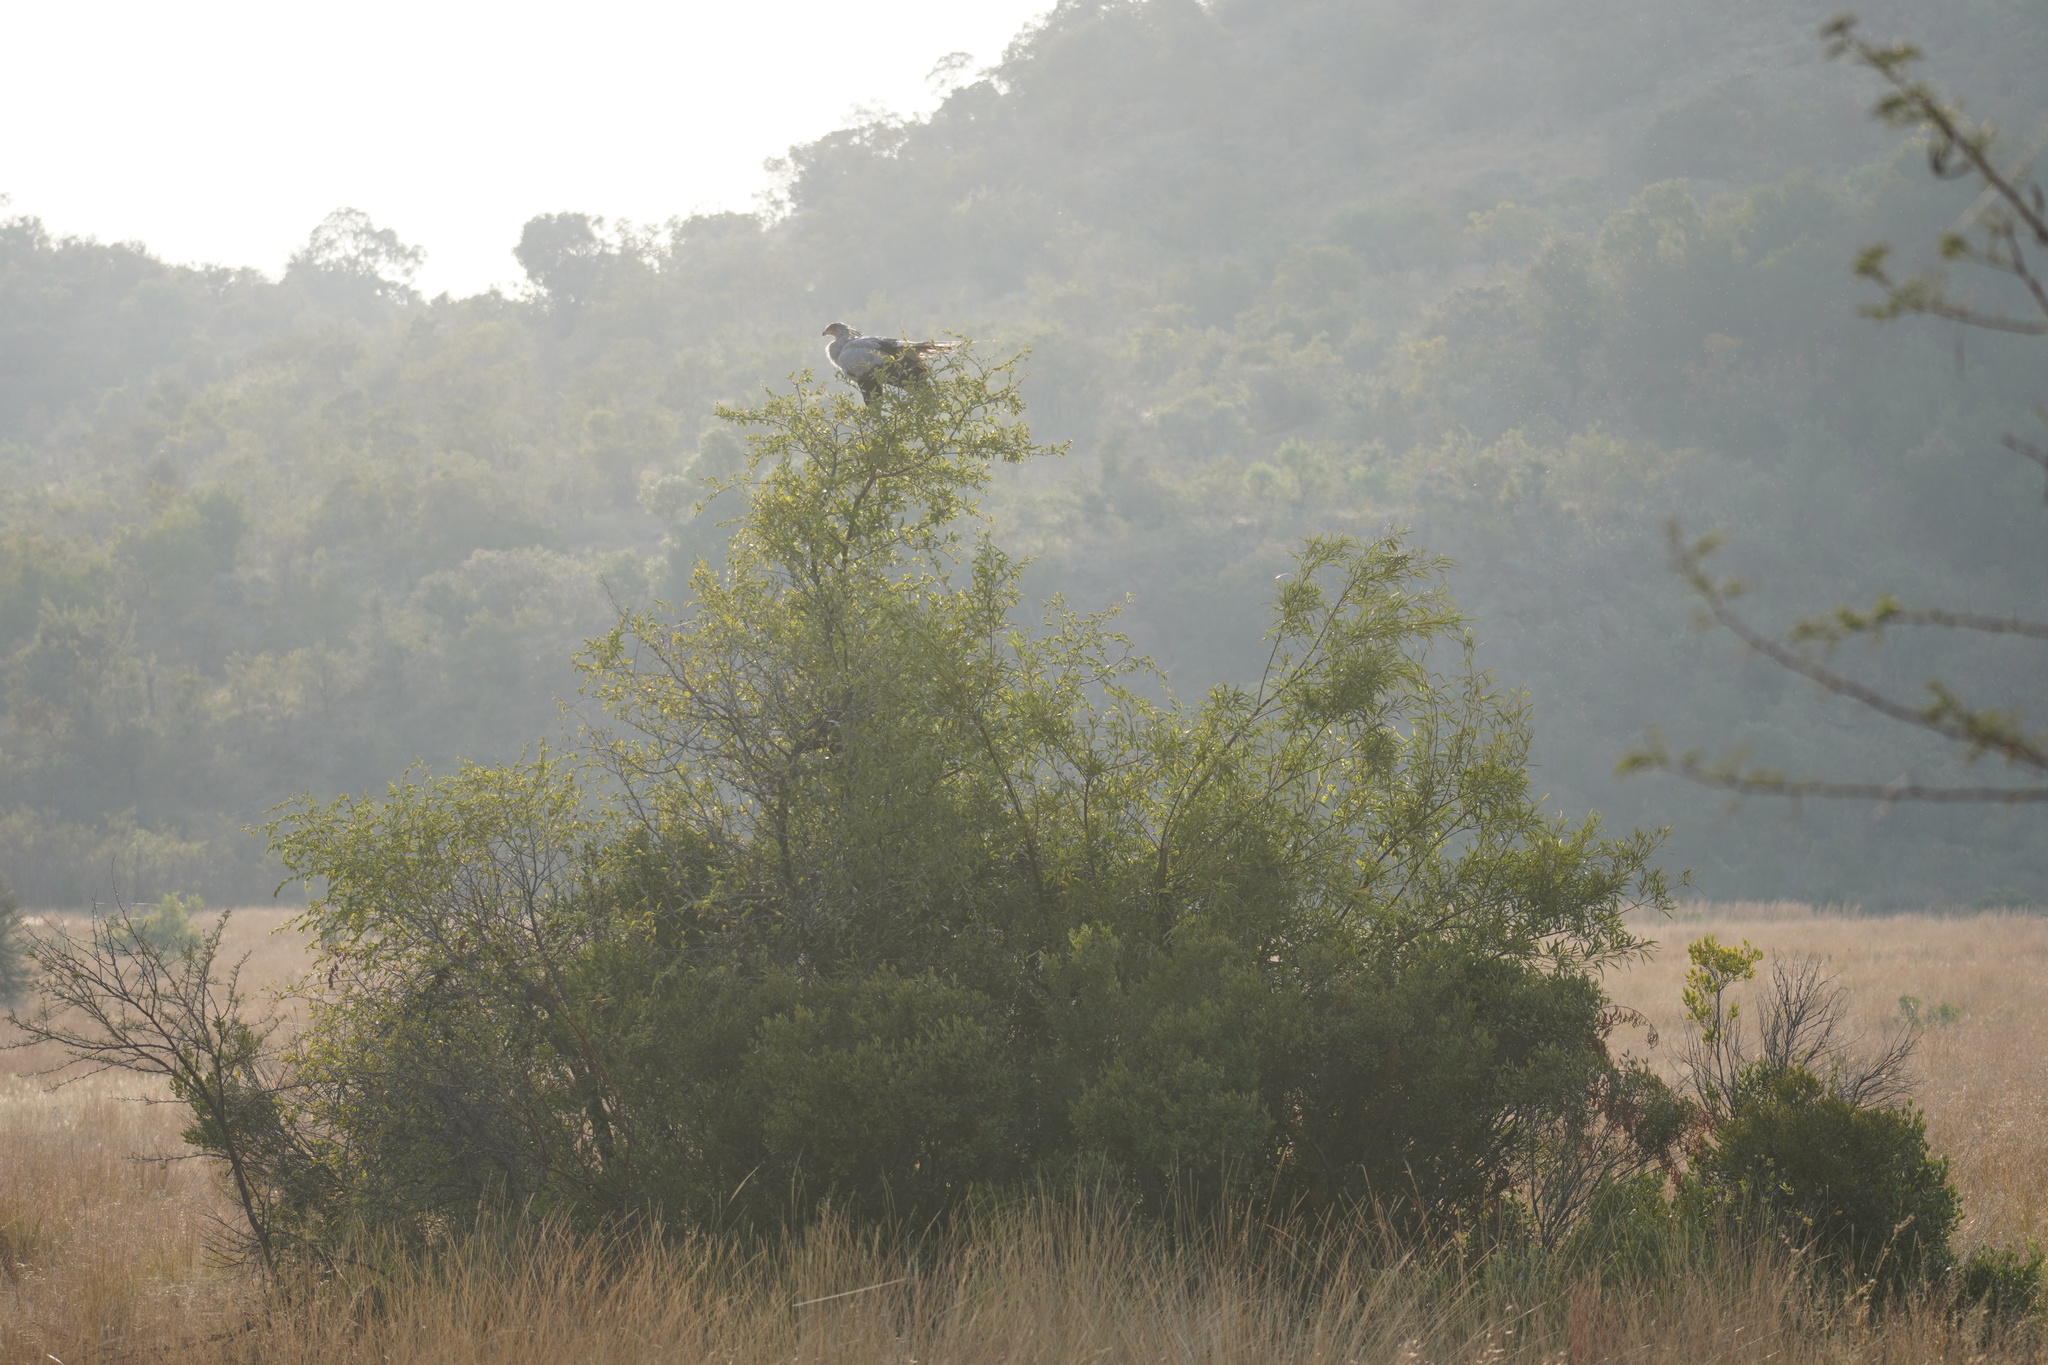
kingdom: Animalia
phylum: Chordata
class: Aves
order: Accipitriformes
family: Sagittariidae
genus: Sagittarius
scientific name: Sagittarius serpentarius
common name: Secretarybird
